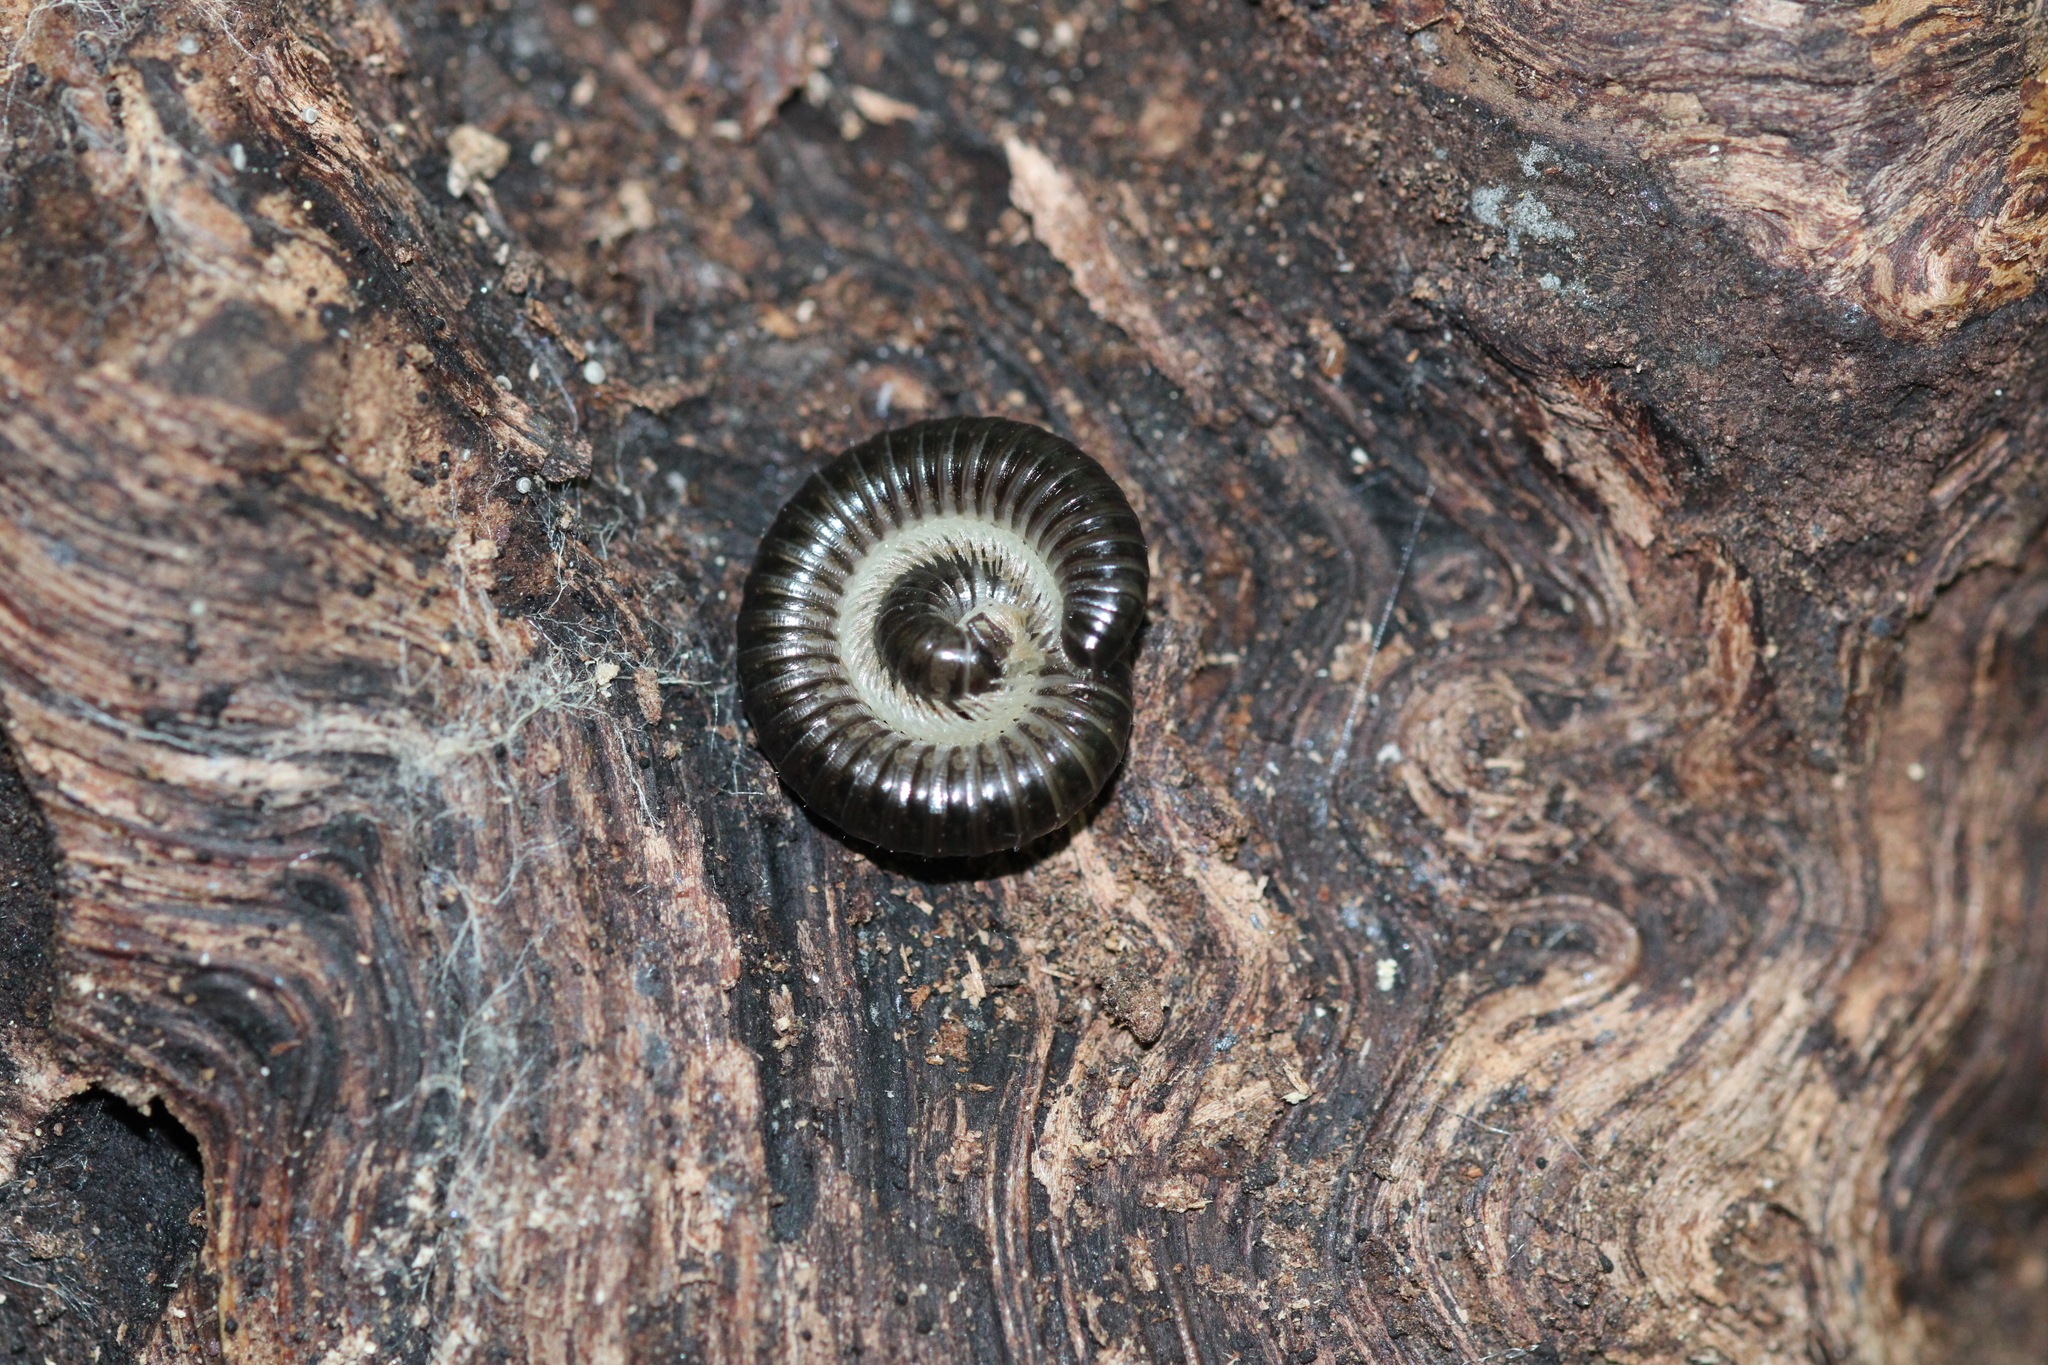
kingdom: Animalia
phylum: Arthropoda
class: Diplopoda
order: Julida
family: Julidae
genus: Tachypodoiulus
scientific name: Tachypodoiulus niger
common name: White-legged snake millipede
